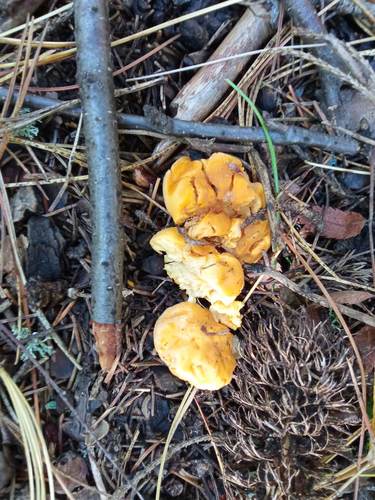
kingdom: Fungi
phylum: Basidiomycota
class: Agaricomycetes
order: Cantharellales
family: Hydnaceae
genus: Cantharellus
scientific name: Cantharellus cibarius
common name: Chanterelle
